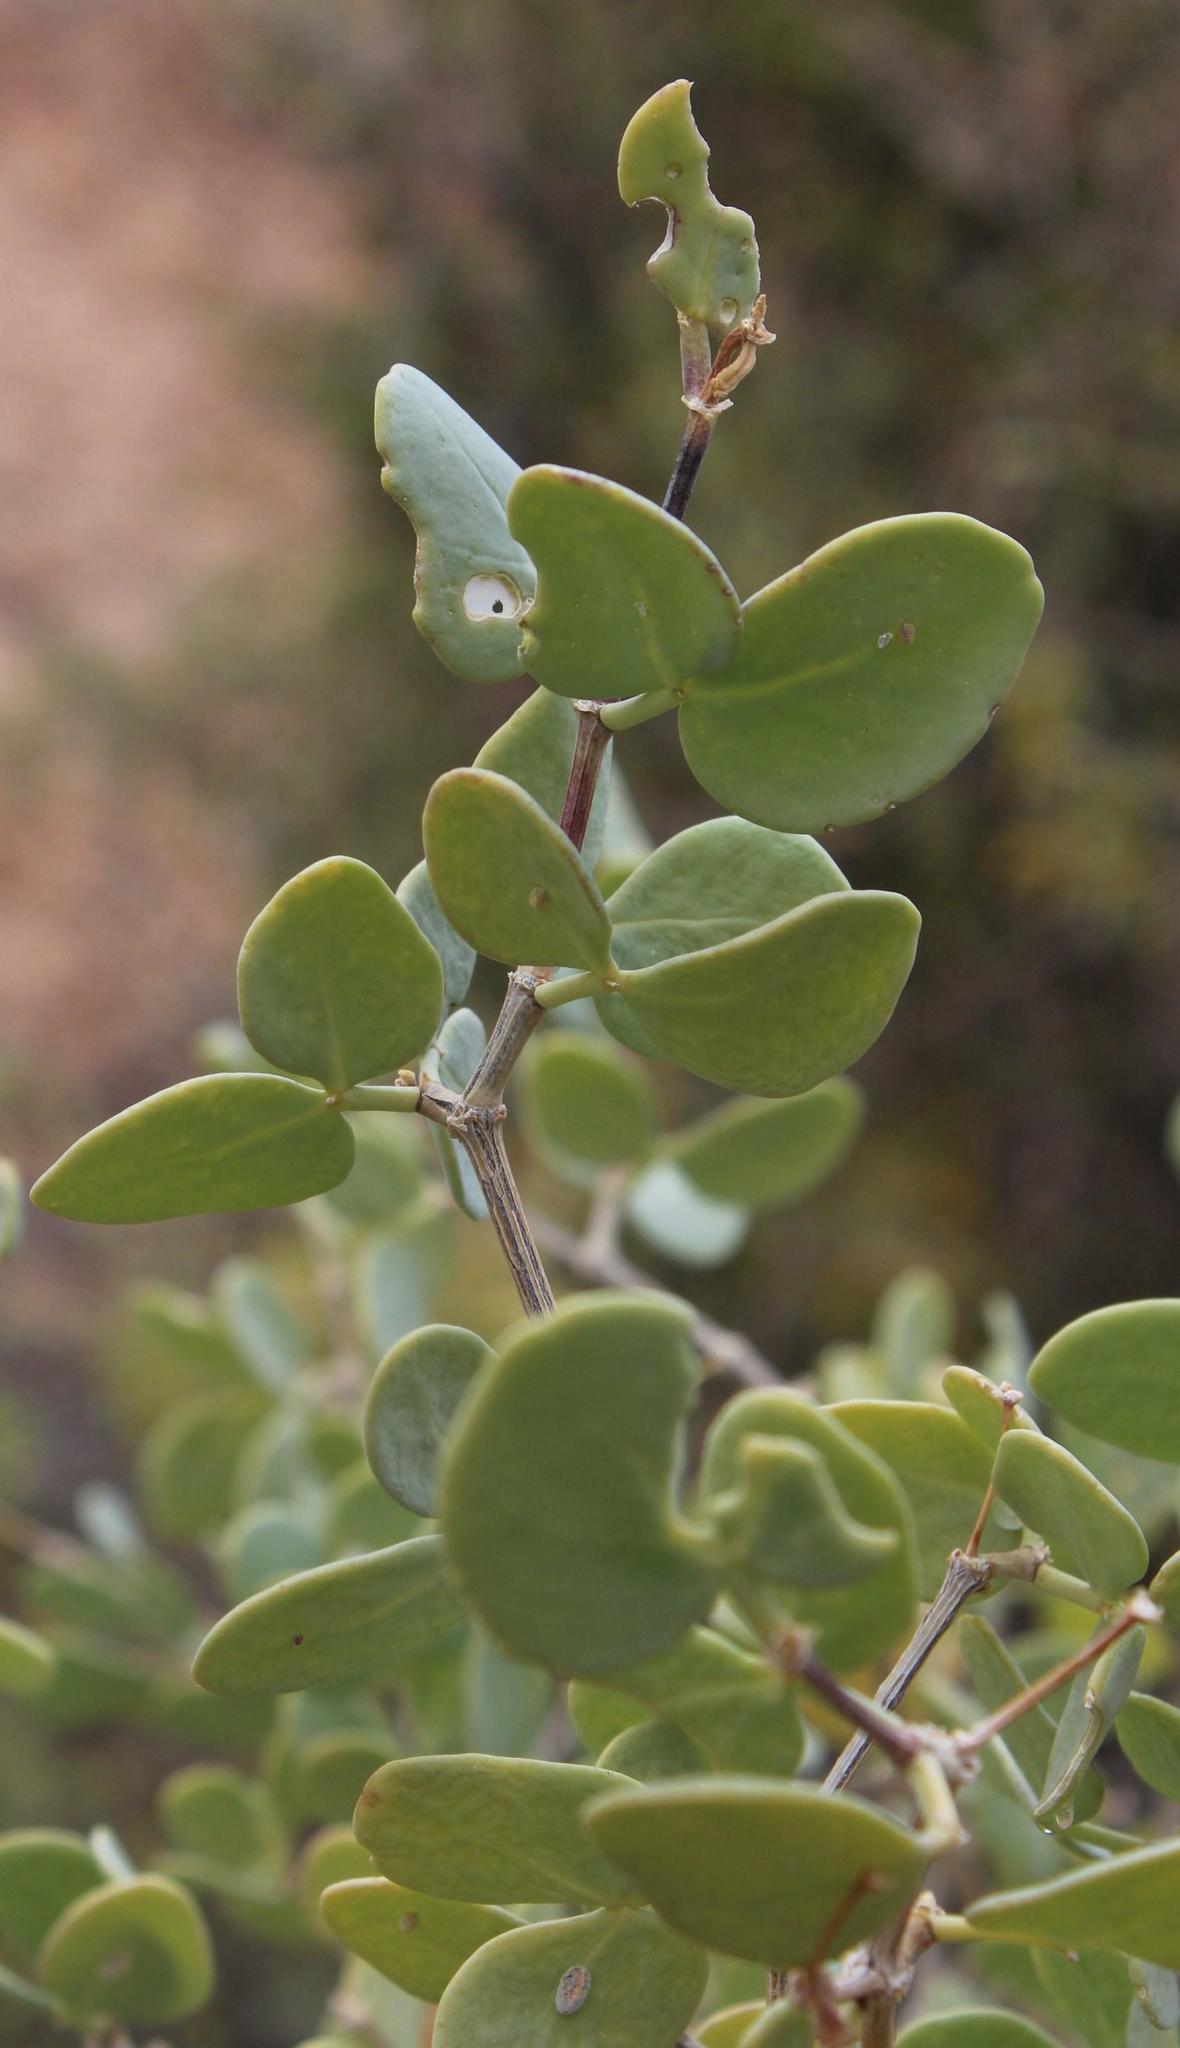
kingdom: Plantae
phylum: Tracheophyta
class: Magnoliopsida
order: Zygophyllales
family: Zygophyllaceae
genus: Roepera
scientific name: Roepera foetida
